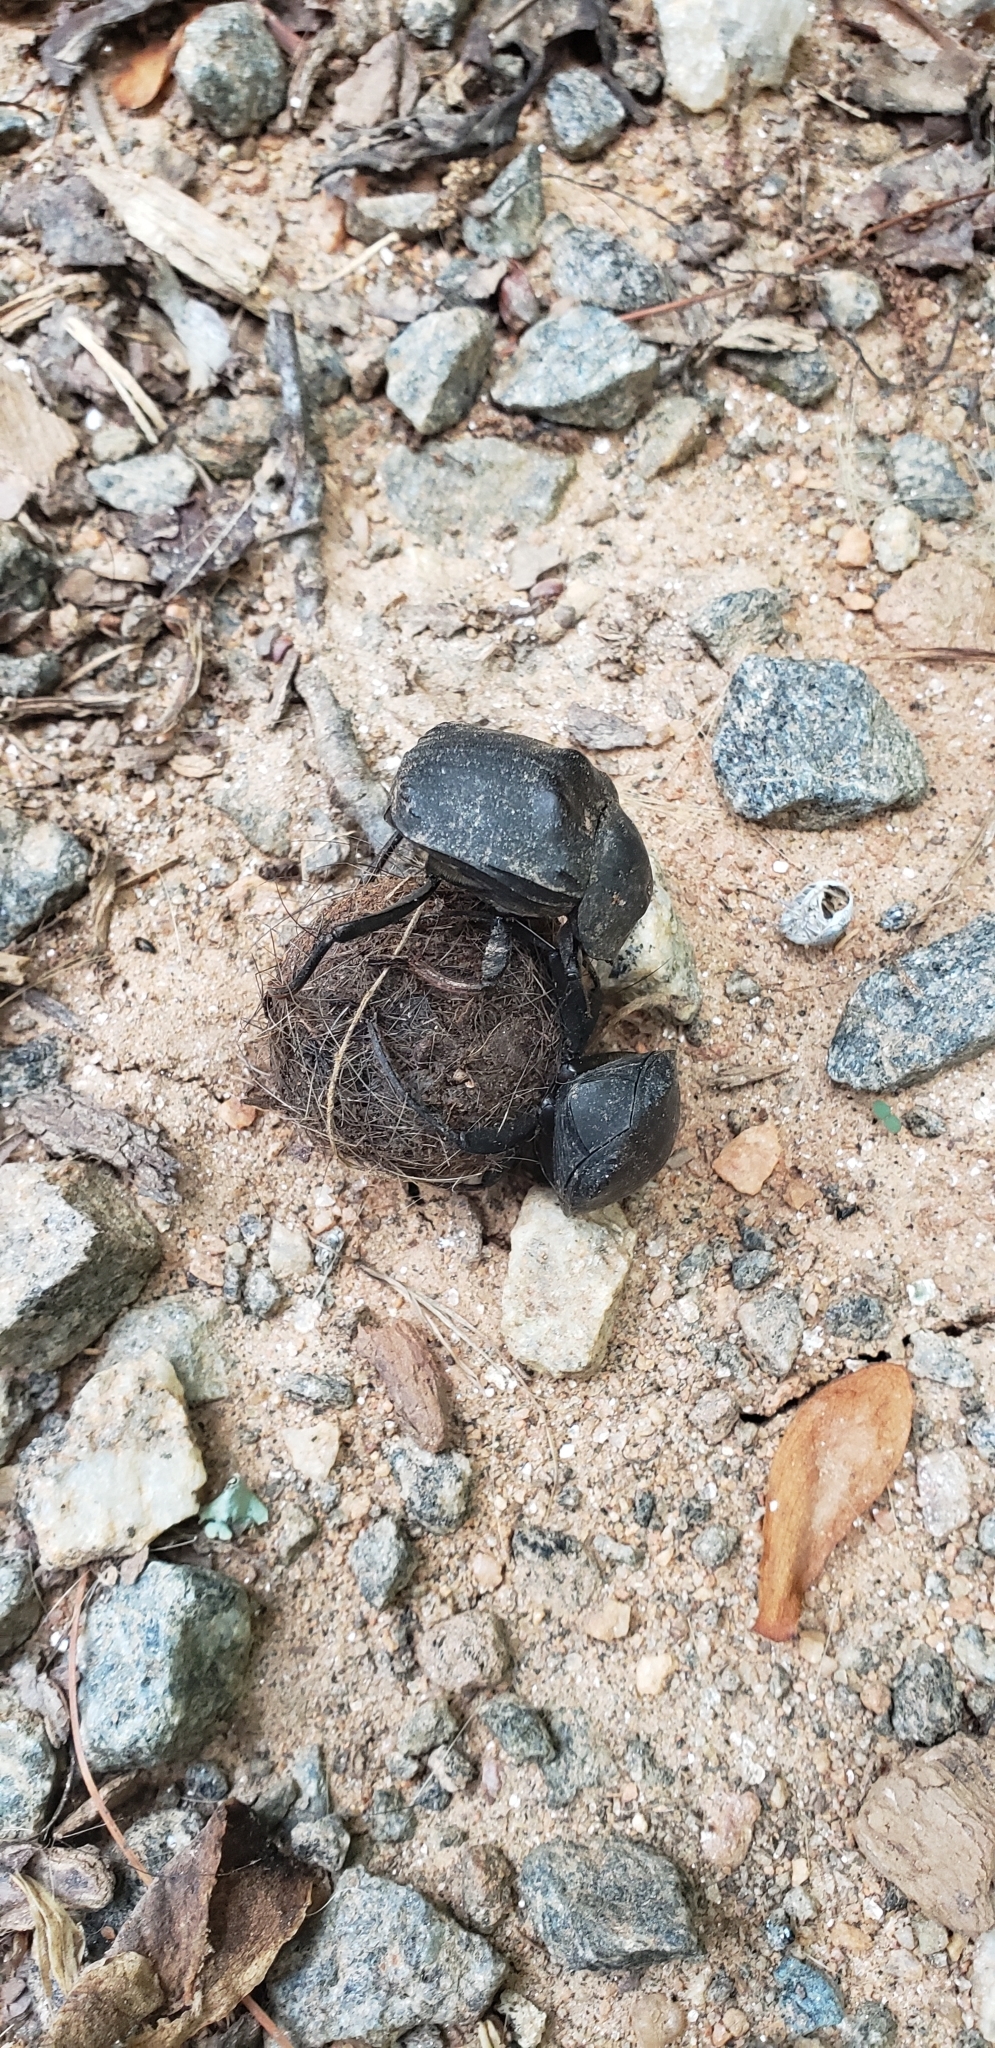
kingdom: Animalia
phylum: Arthropoda
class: Insecta
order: Coleoptera
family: Scarabaeidae
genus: Deltochilum
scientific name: Deltochilum gibbosum
